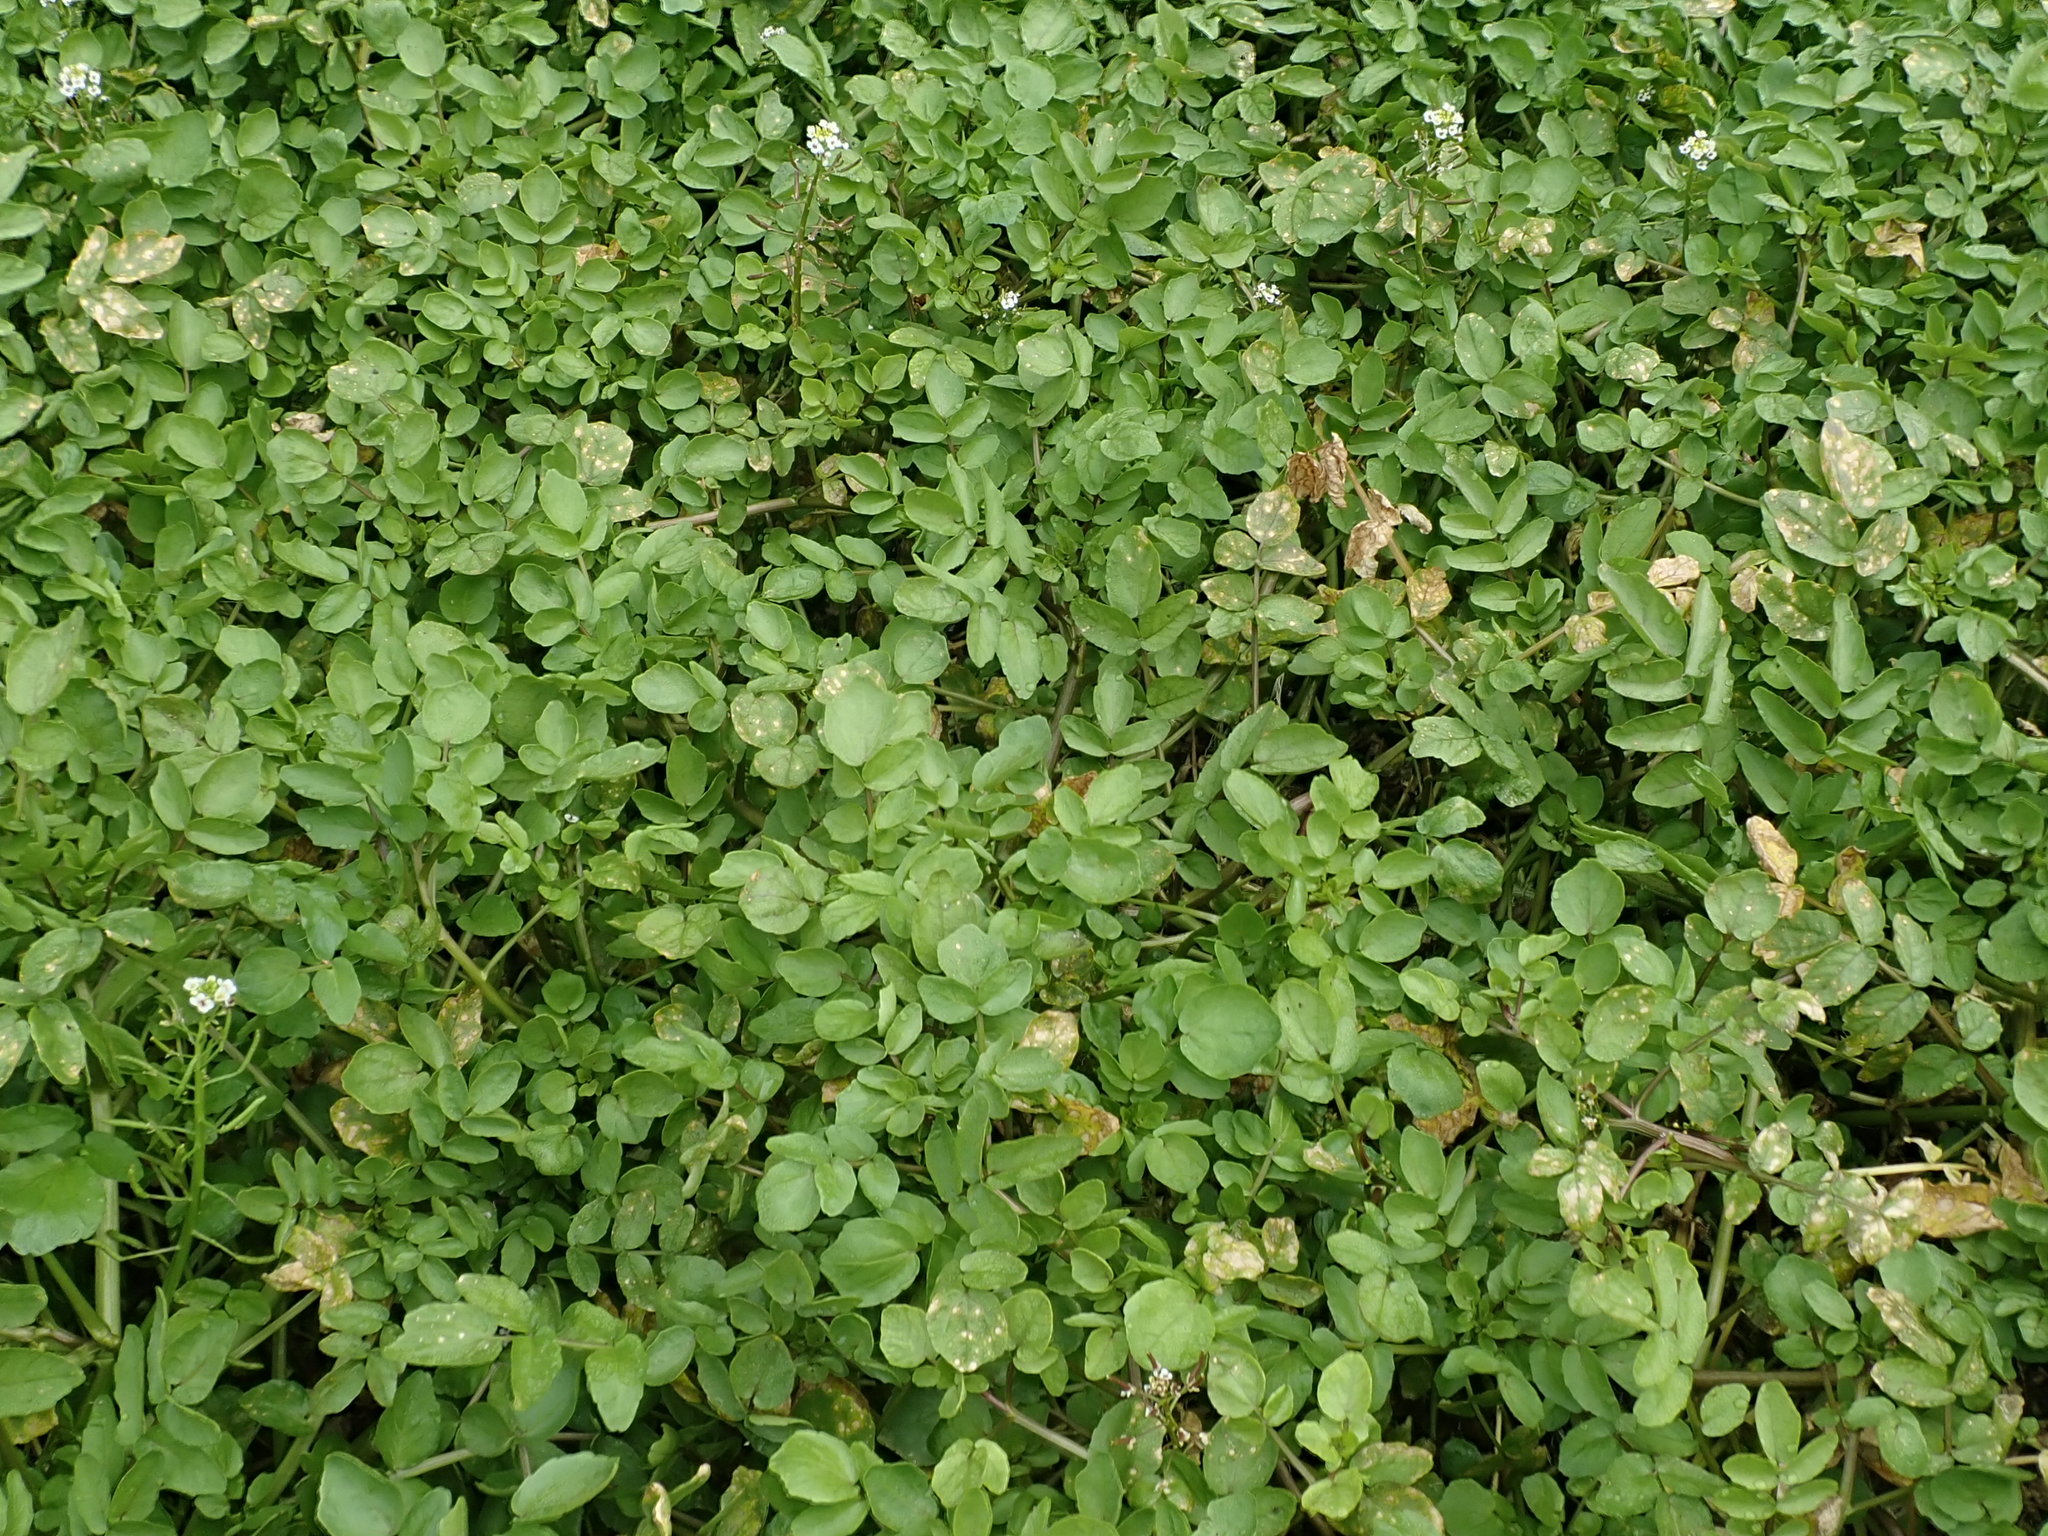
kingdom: Plantae
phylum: Tracheophyta
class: Magnoliopsida
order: Brassicales
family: Brassicaceae
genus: Nasturtium
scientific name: Nasturtium officinale
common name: Watercress
